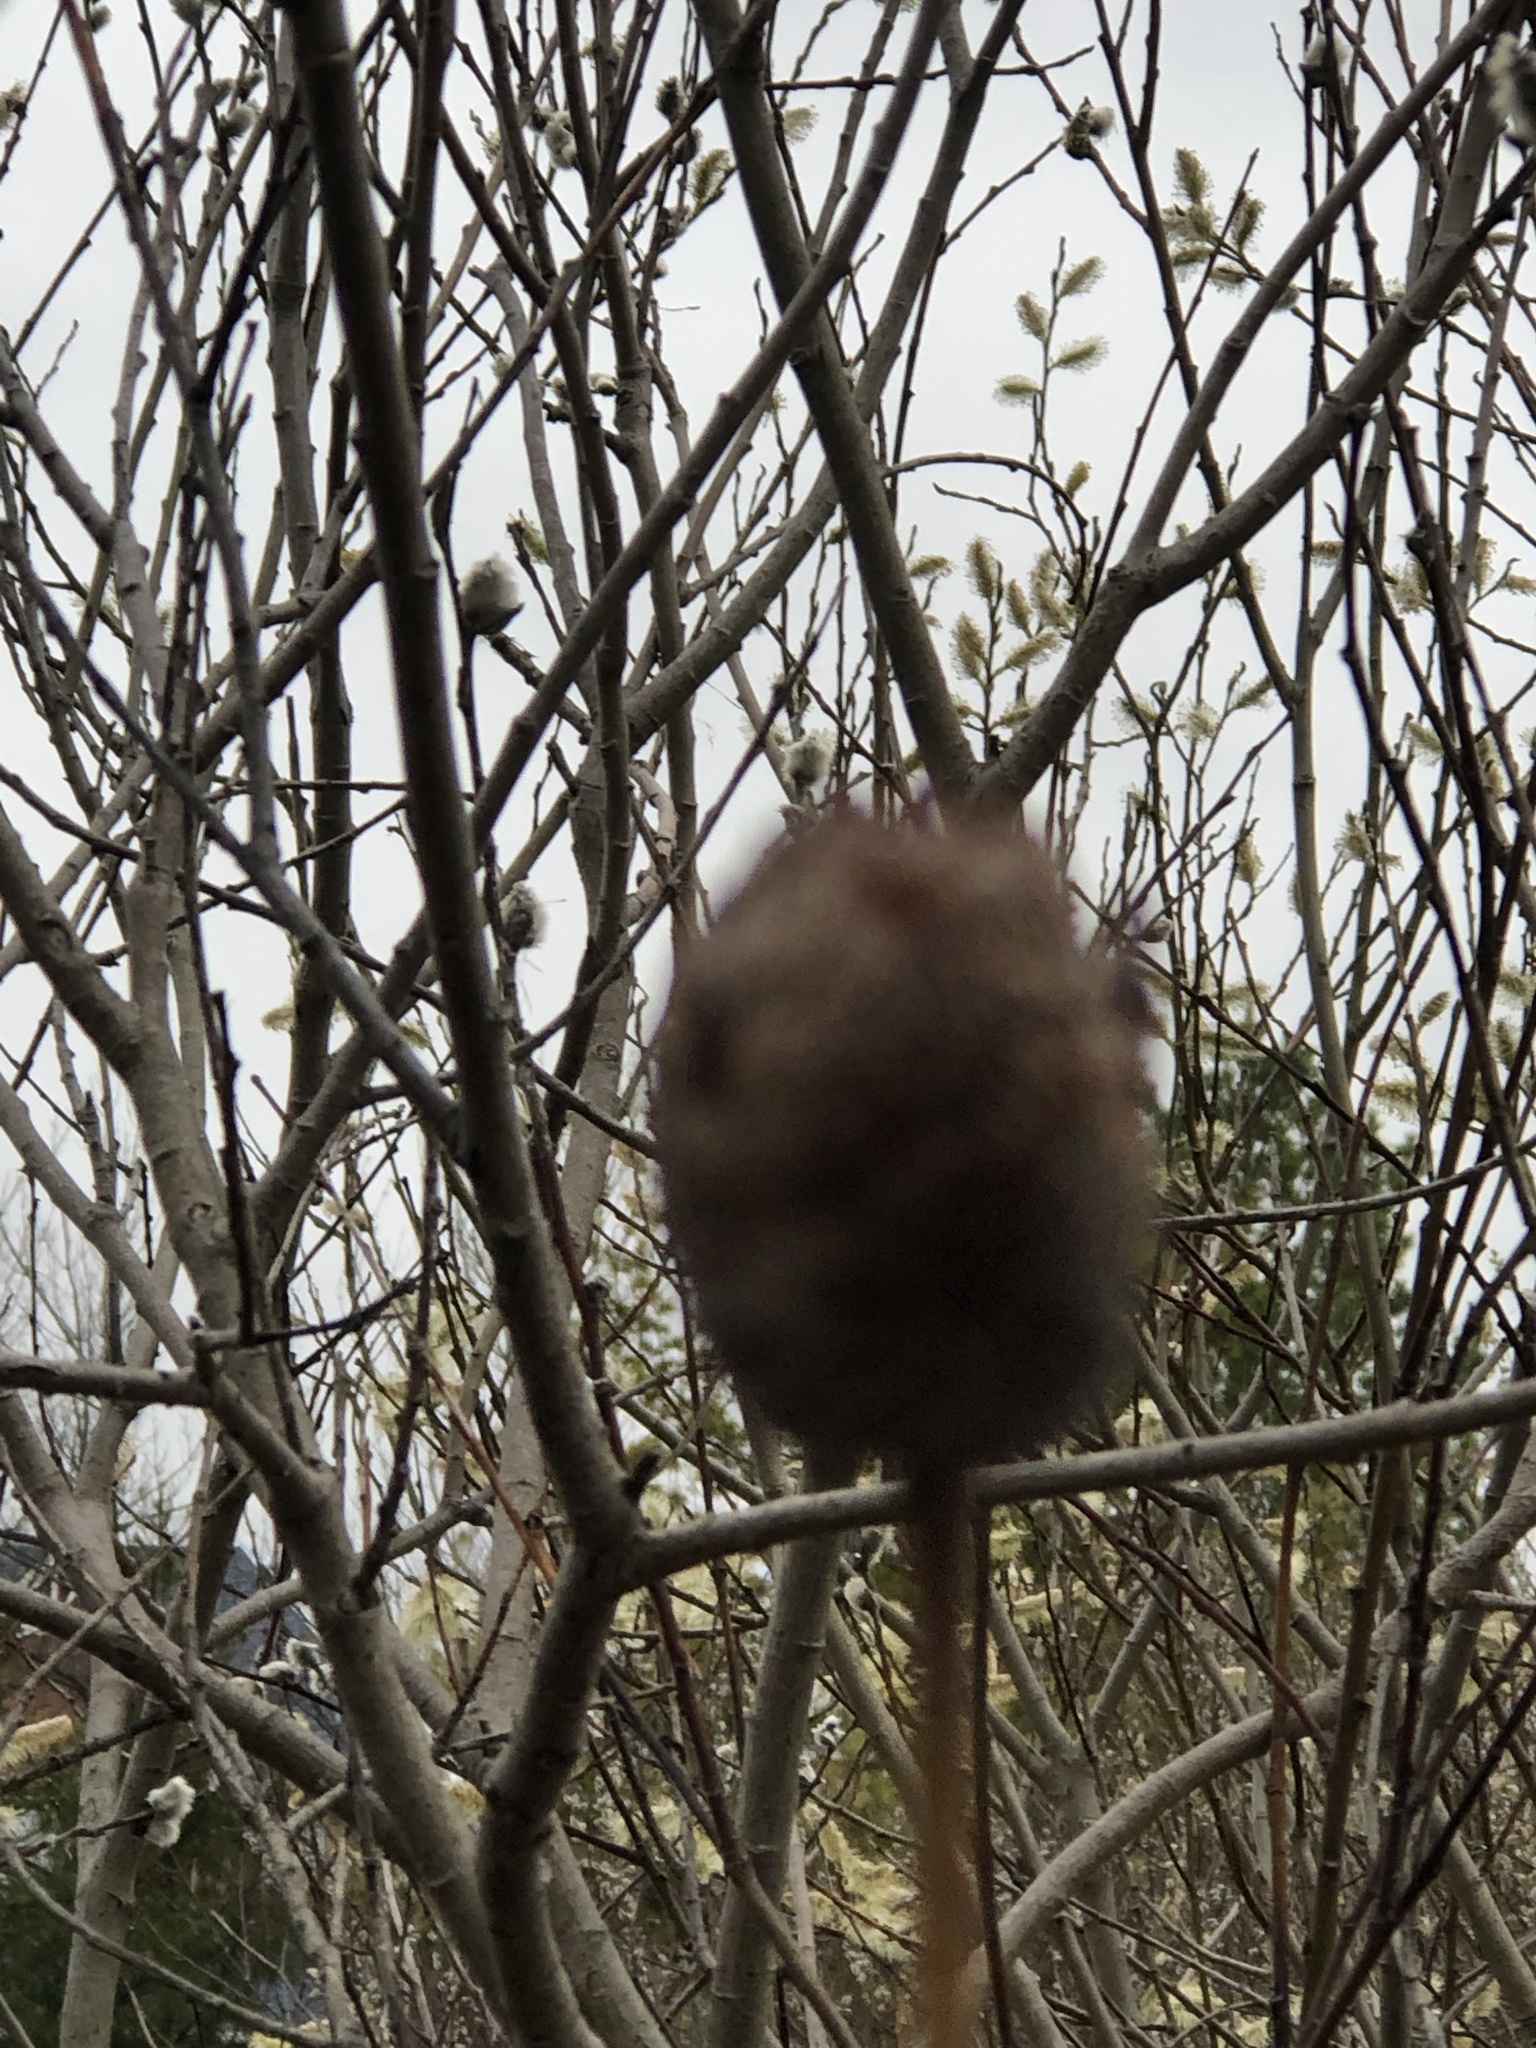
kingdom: Animalia
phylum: Arthropoda
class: Insecta
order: Diptera
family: Cecidomyiidae
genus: Rabdophaga
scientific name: Rabdophaga strobiloides
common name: Willow pinecone gall midge
